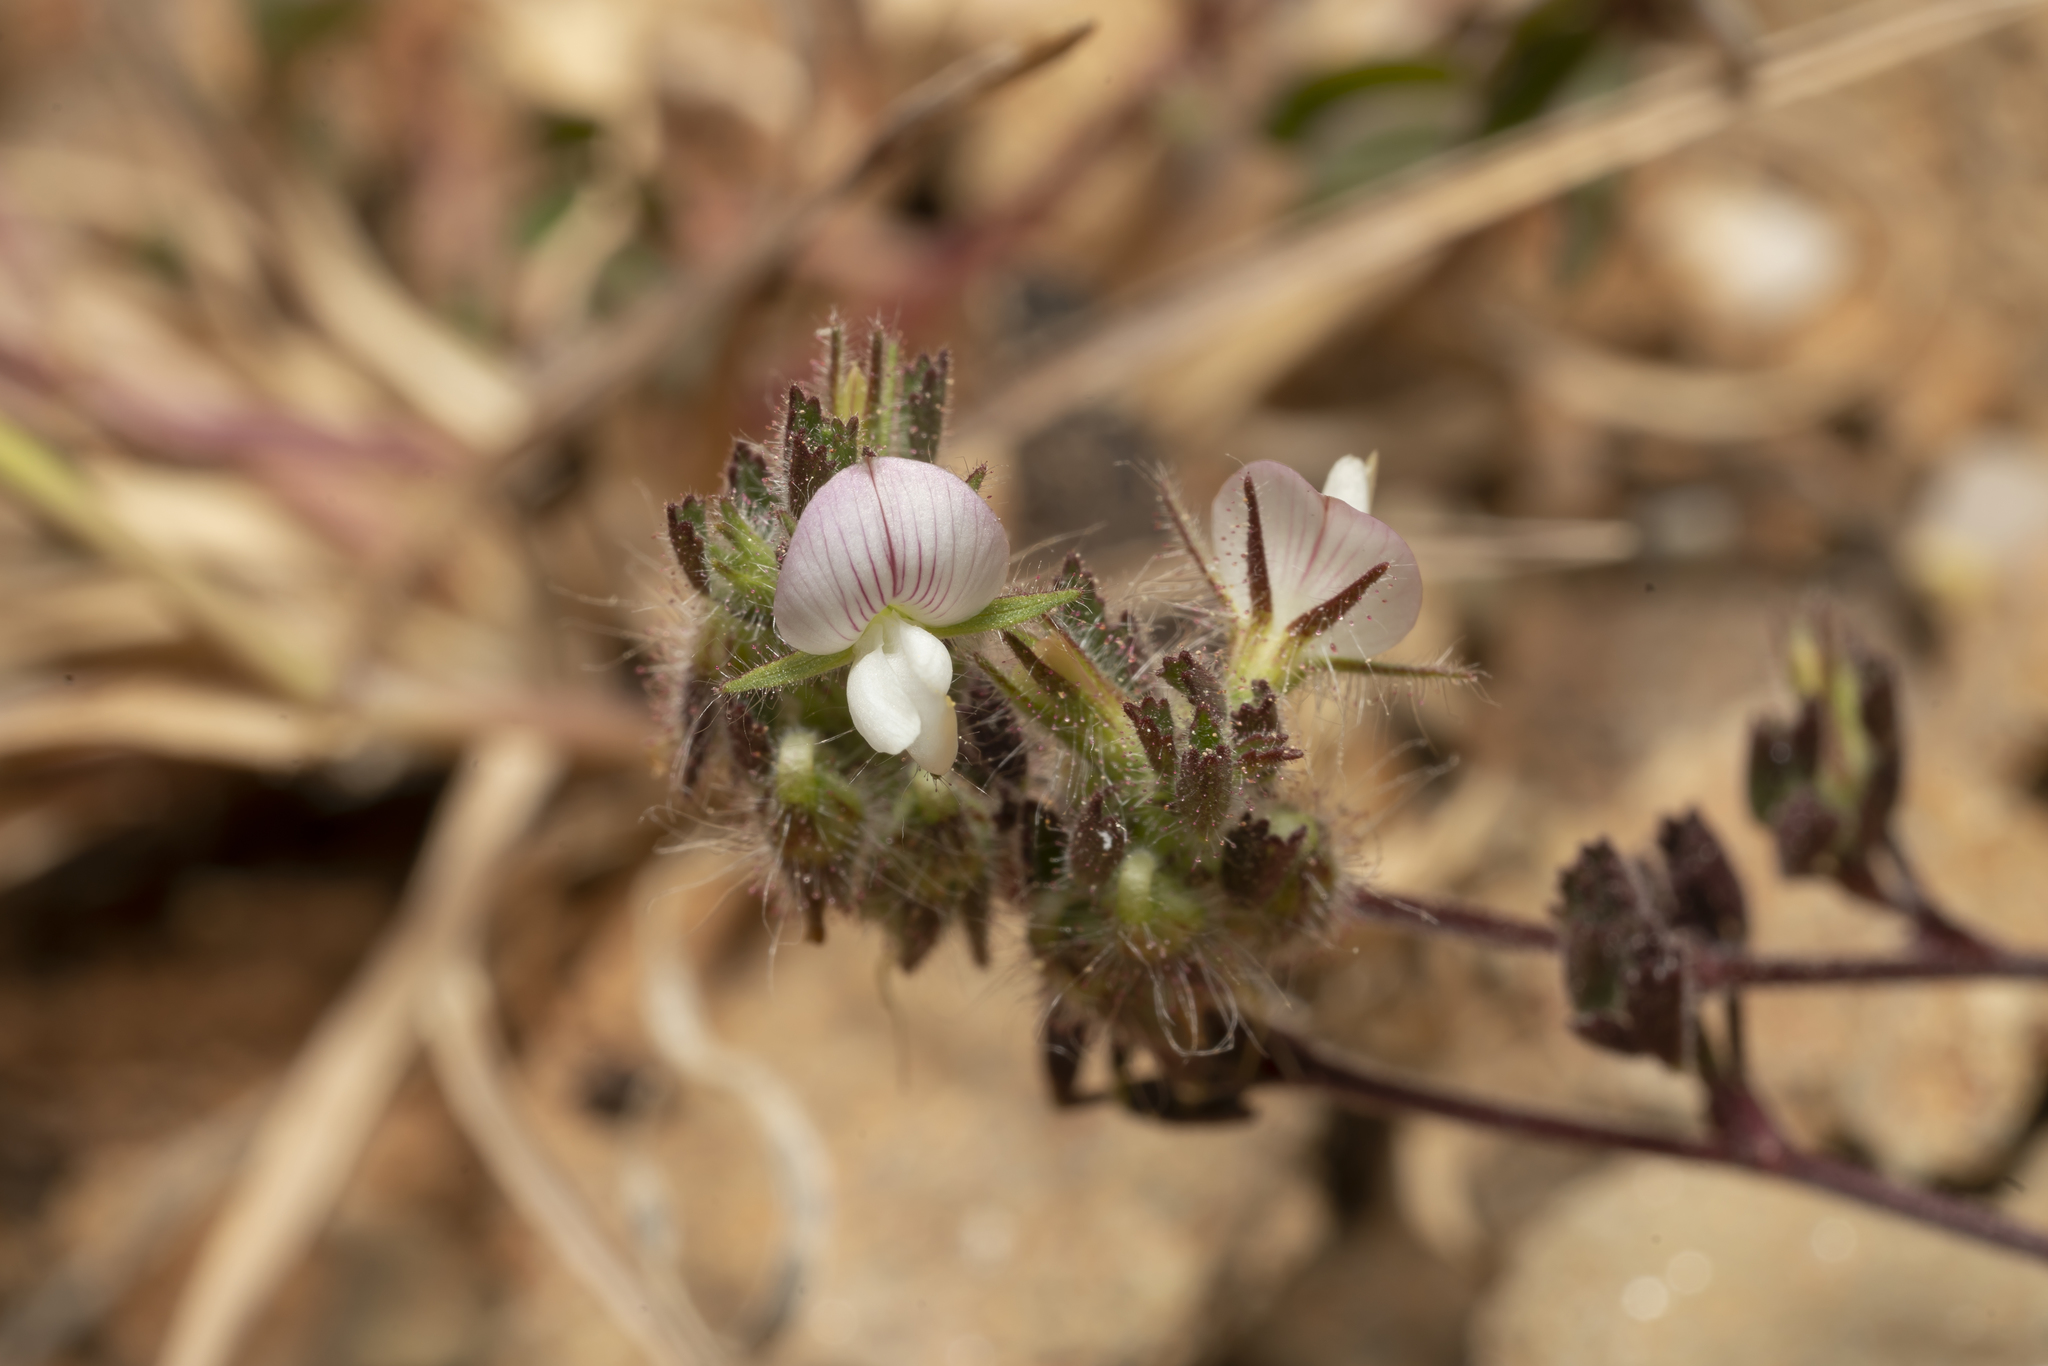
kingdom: Plantae
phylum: Tracheophyta
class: Magnoliopsida
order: Fabales
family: Fabaceae
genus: Ononis
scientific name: Ononis reclinata
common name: Small restharrow
